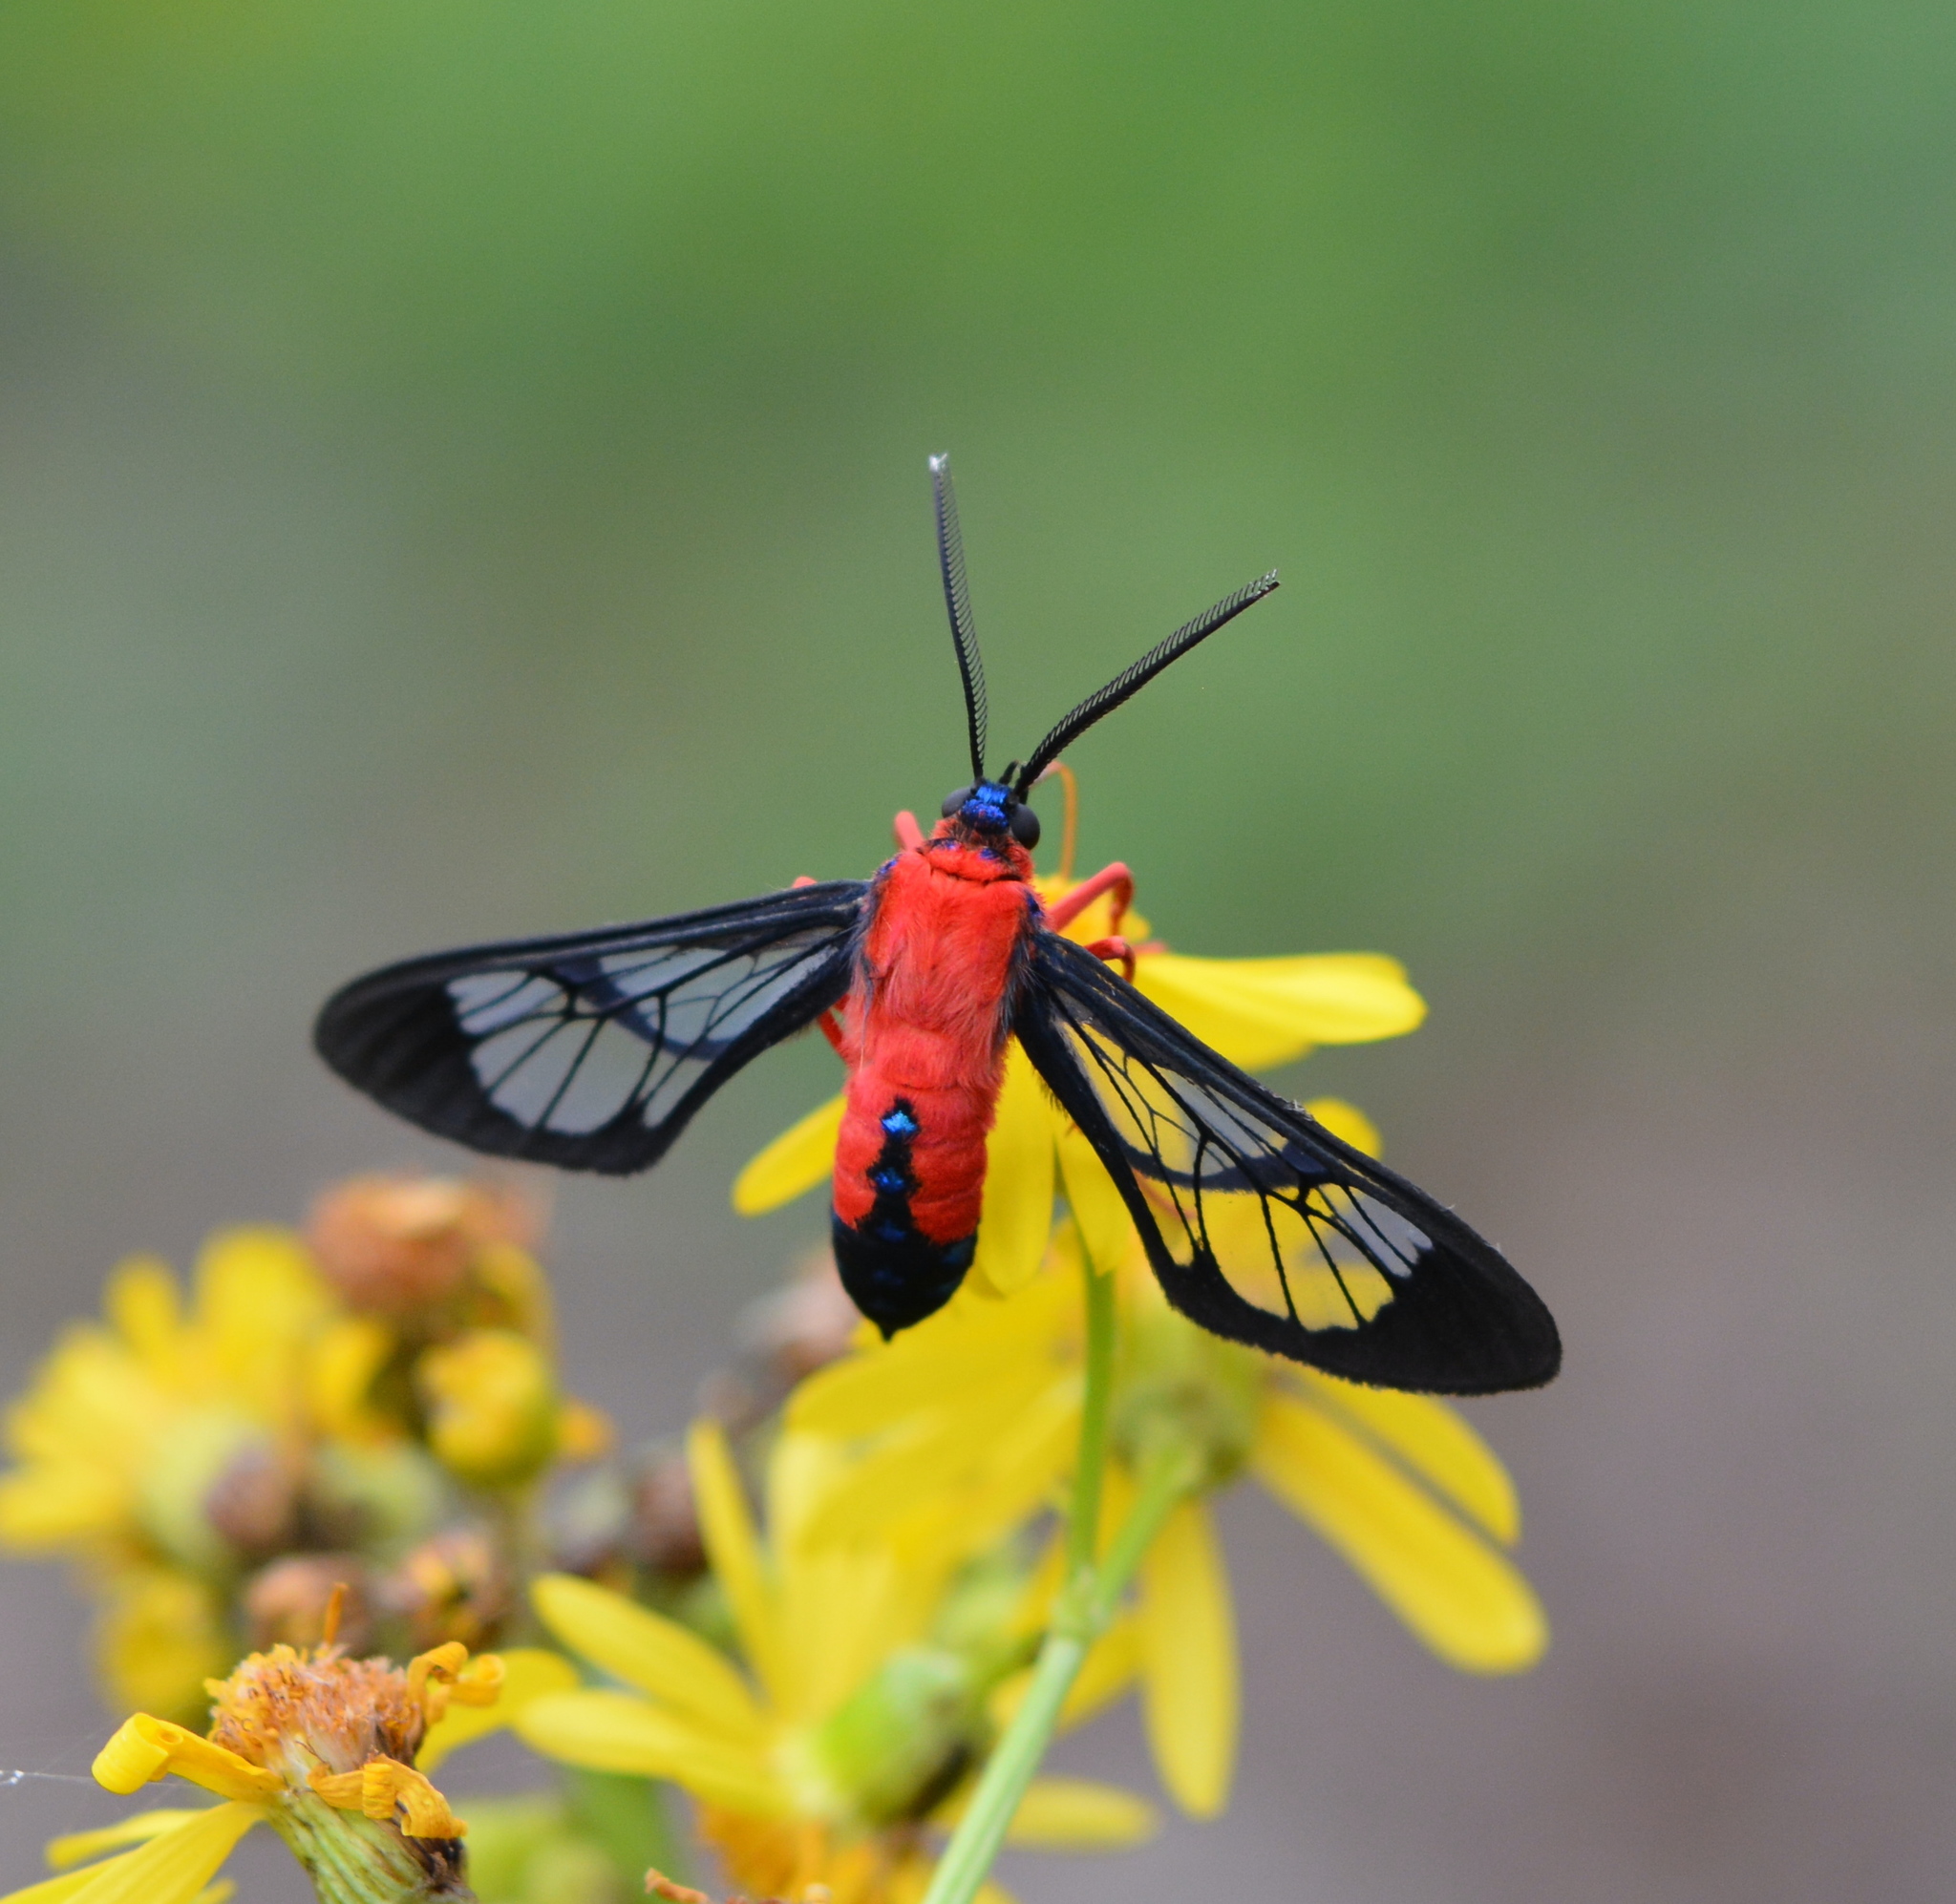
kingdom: Animalia
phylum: Arthropoda
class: Insecta
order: Lepidoptera
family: Erebidae
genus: Cosmosoma
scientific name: Cosmosoma myrodora
